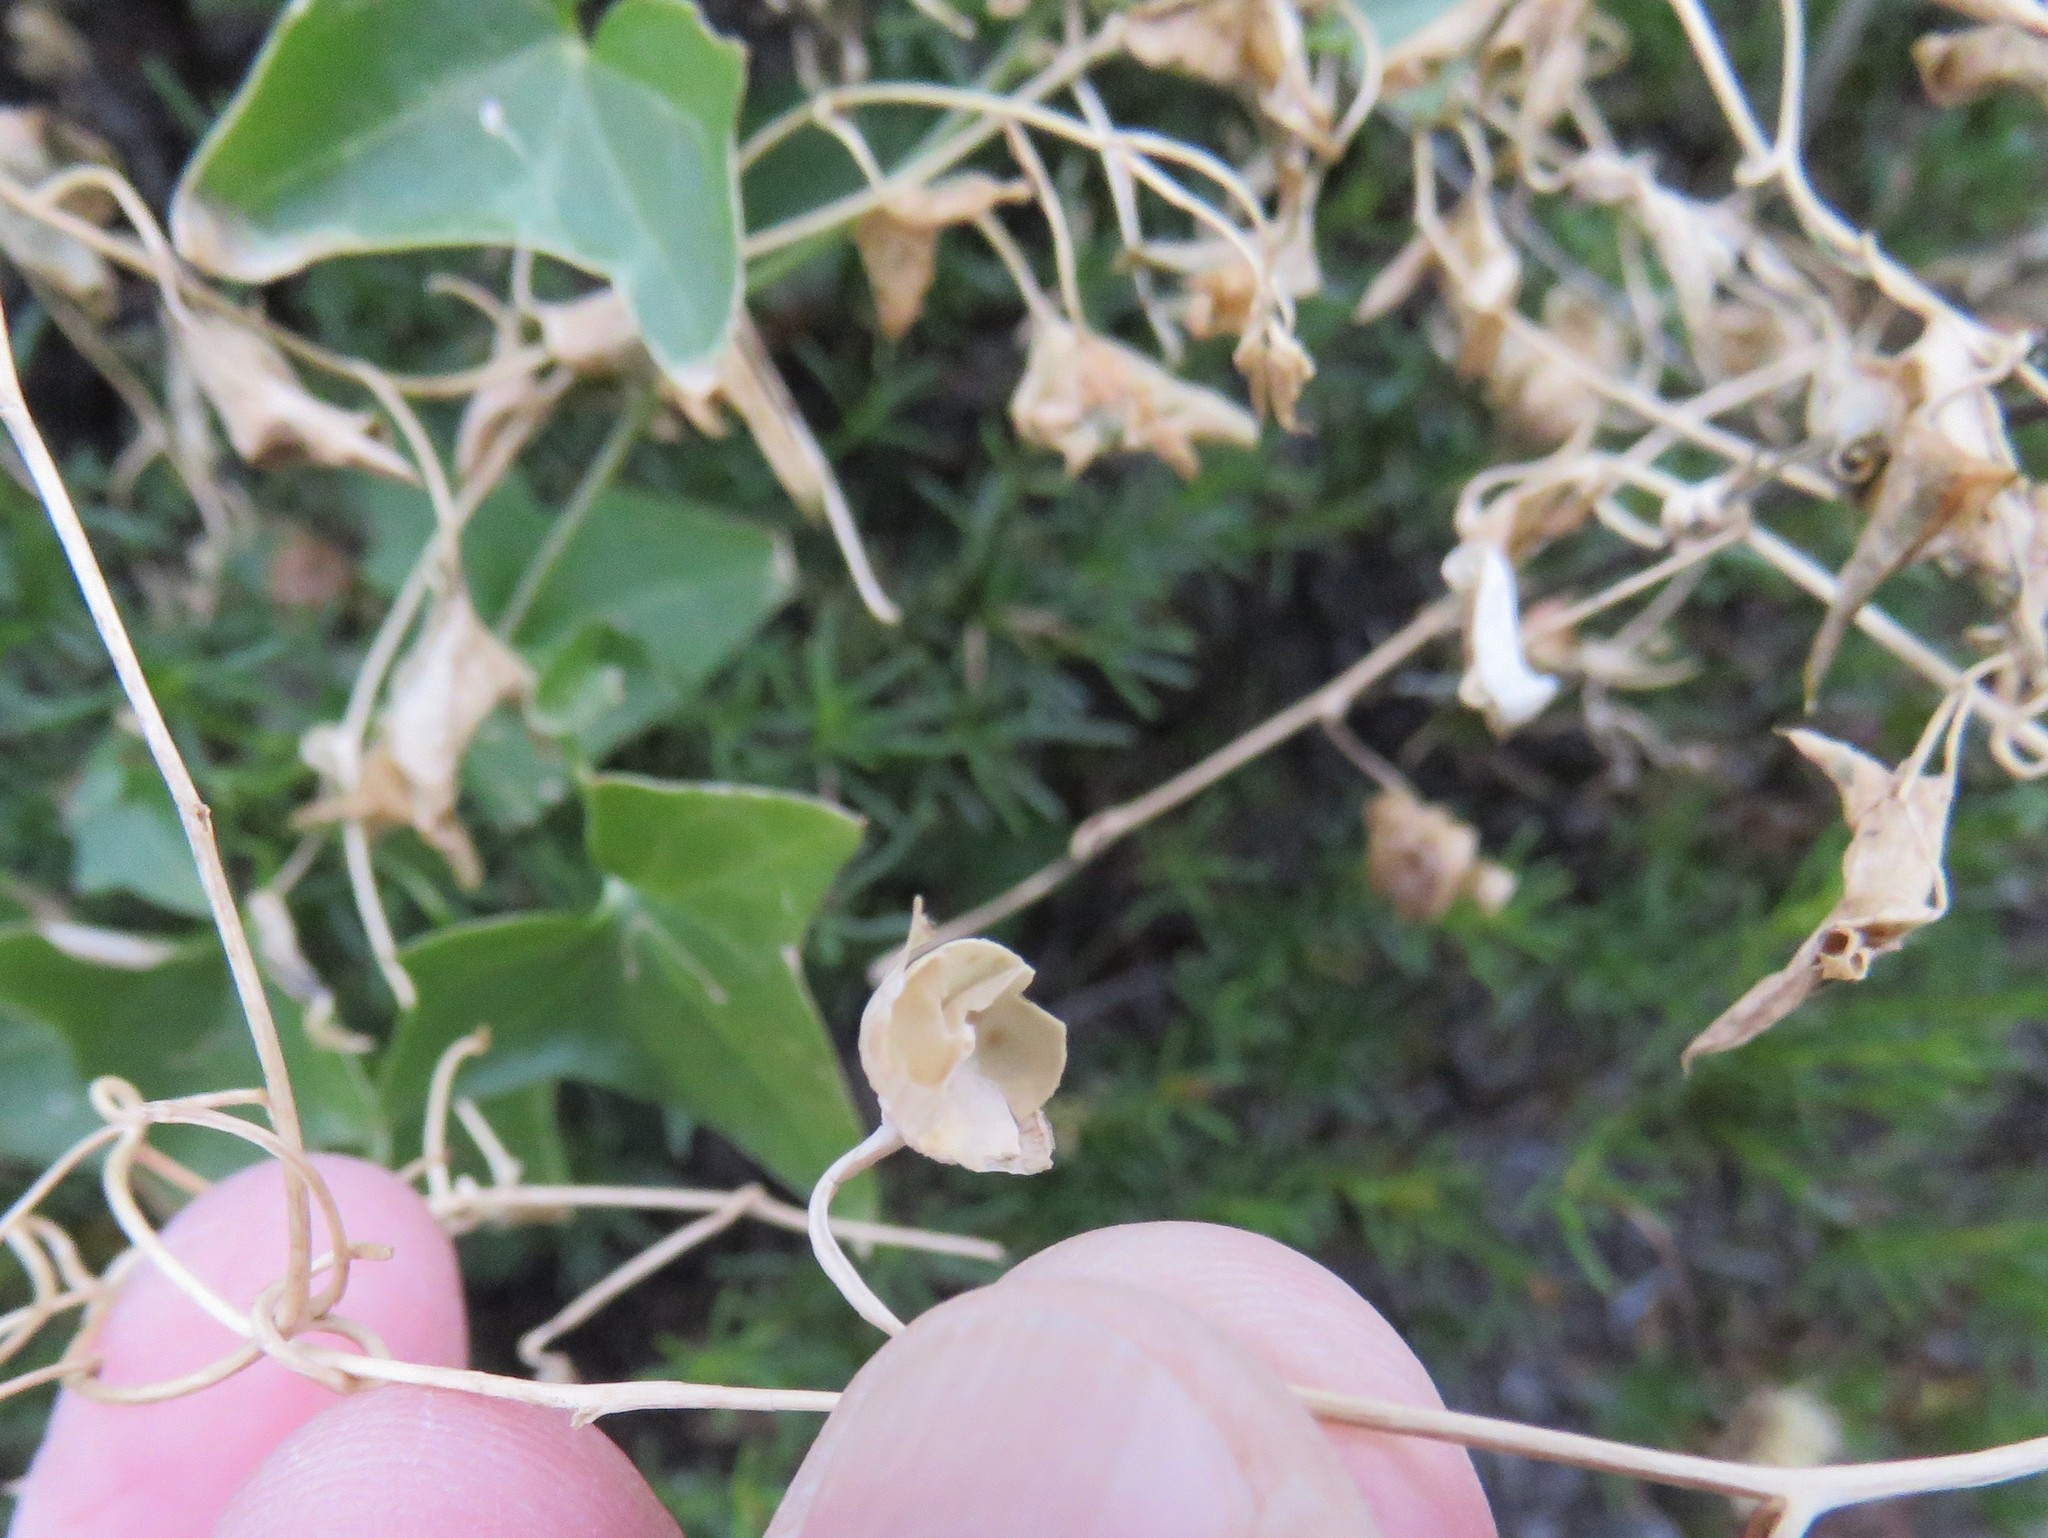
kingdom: Plantae
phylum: Tracheophyta
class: Magnoliopsida
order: Lamiales
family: Plantaginaceae
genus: Maurandella
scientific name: Maurandella antirrhiniflora
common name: Violet twining-snapdragon
